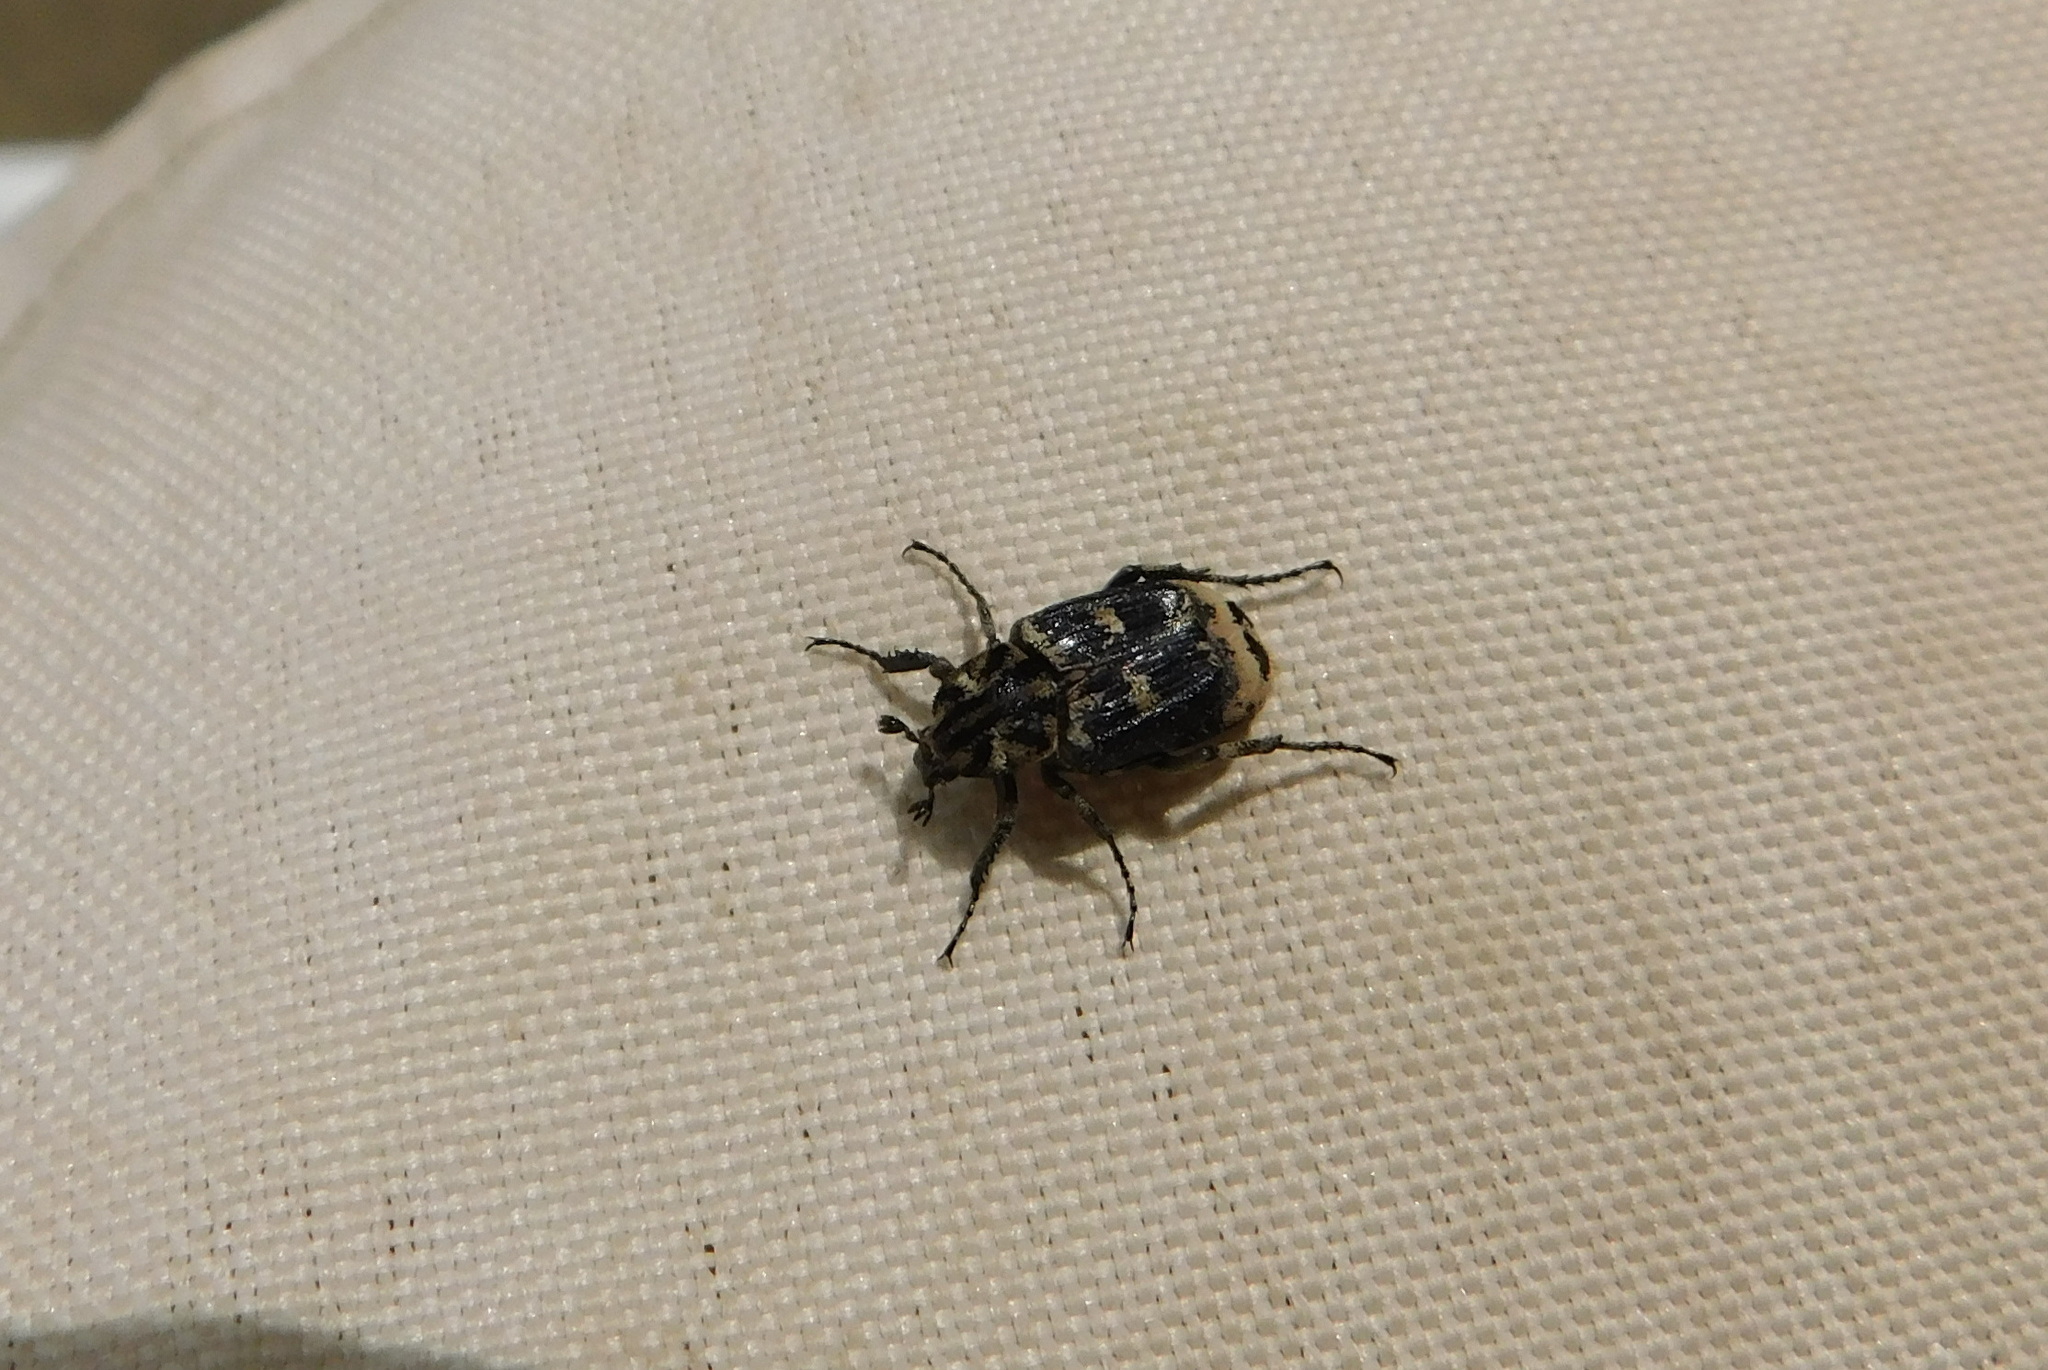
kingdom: Animalia
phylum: Arthropoda
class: Insecta
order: Coleoptera
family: Scarabaeidae
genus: Valgus
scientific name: Valgus hemipterus
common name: Bug flower chafer
